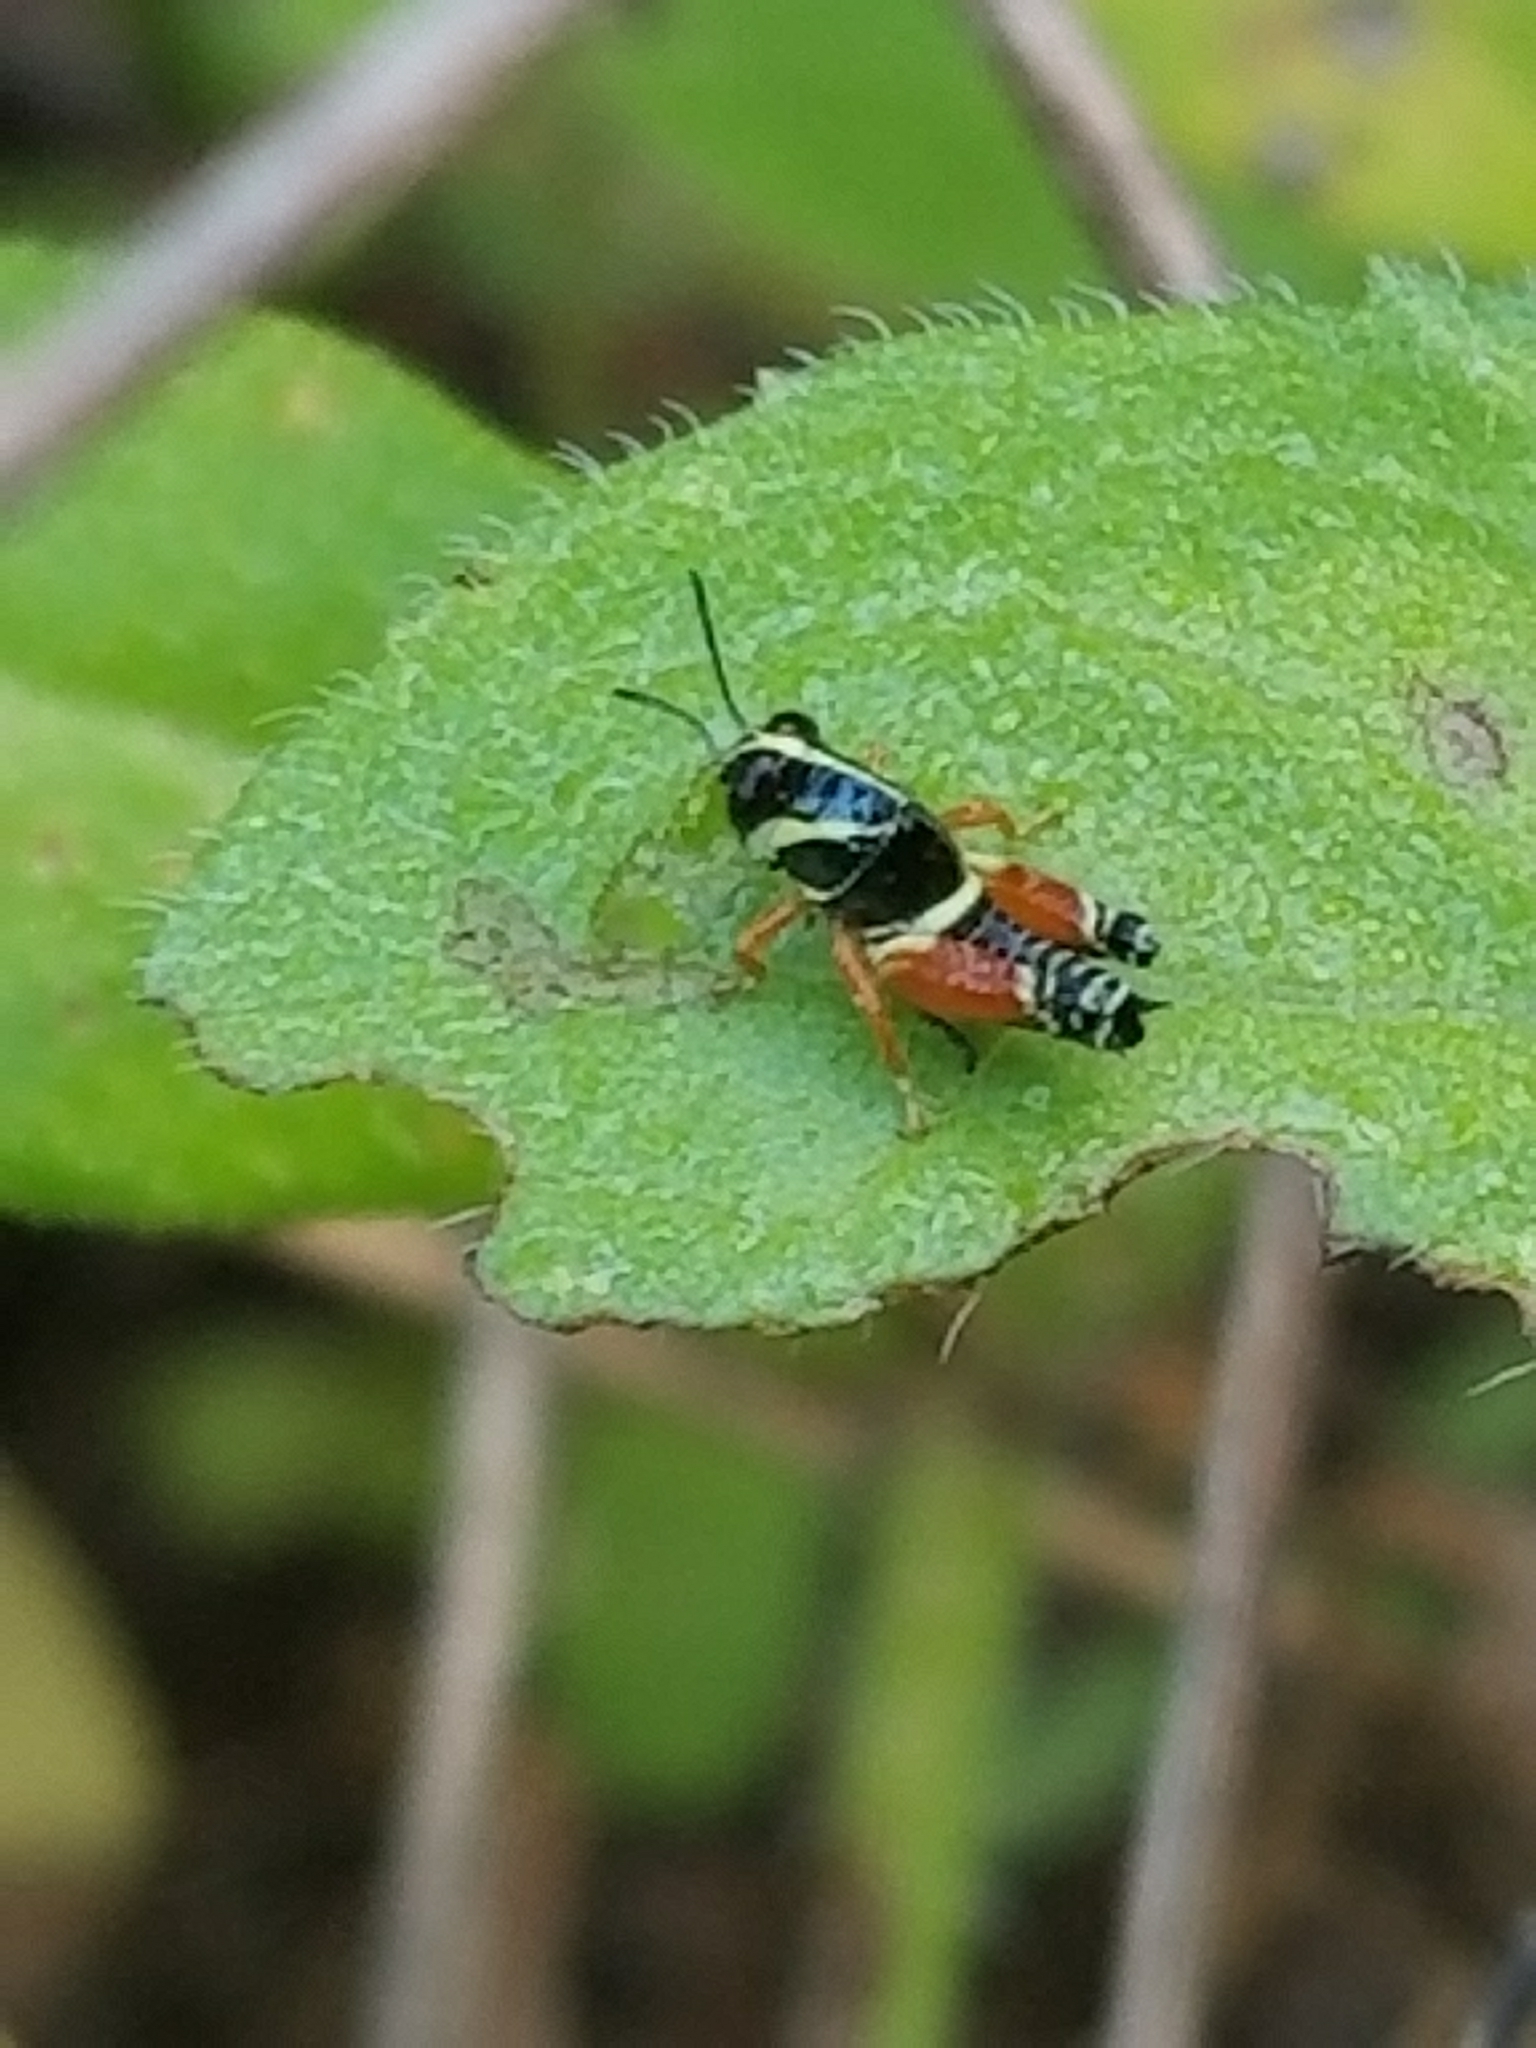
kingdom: Animalia
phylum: Arthropoda
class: Insecta
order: Orthoptera
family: Acrididae
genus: Aidemona
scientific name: Aidemona azteca
